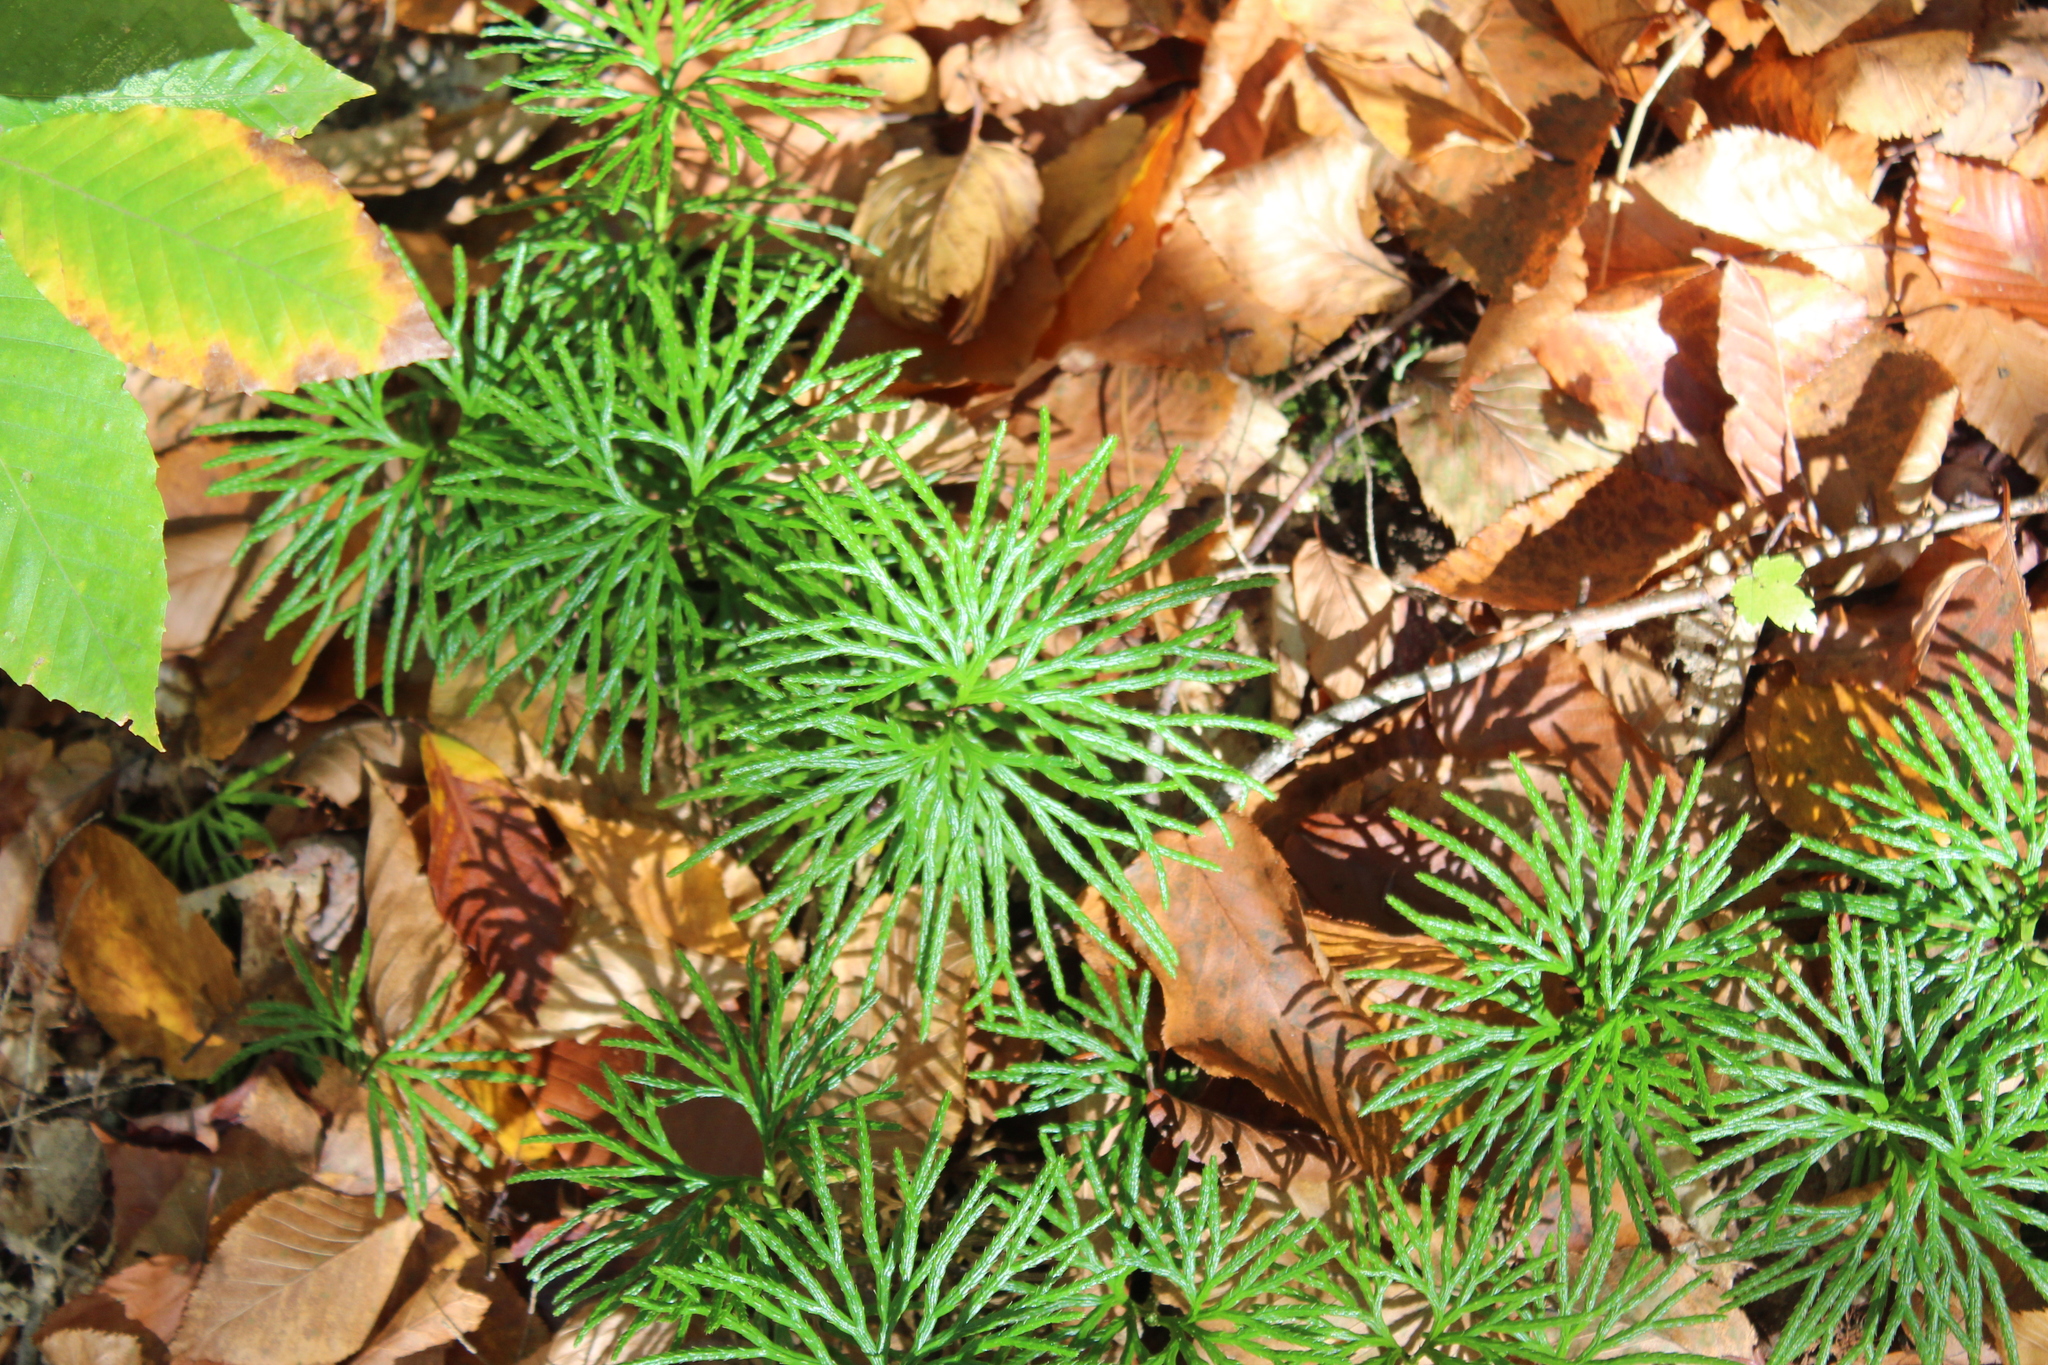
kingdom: Plantae
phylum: Tracheophyta
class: Lycopodiopsida
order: Lycopodiales
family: Lycopodiaceae
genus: Diphasiastrum
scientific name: Diphasiastrum digitatum
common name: Southern running-pine
